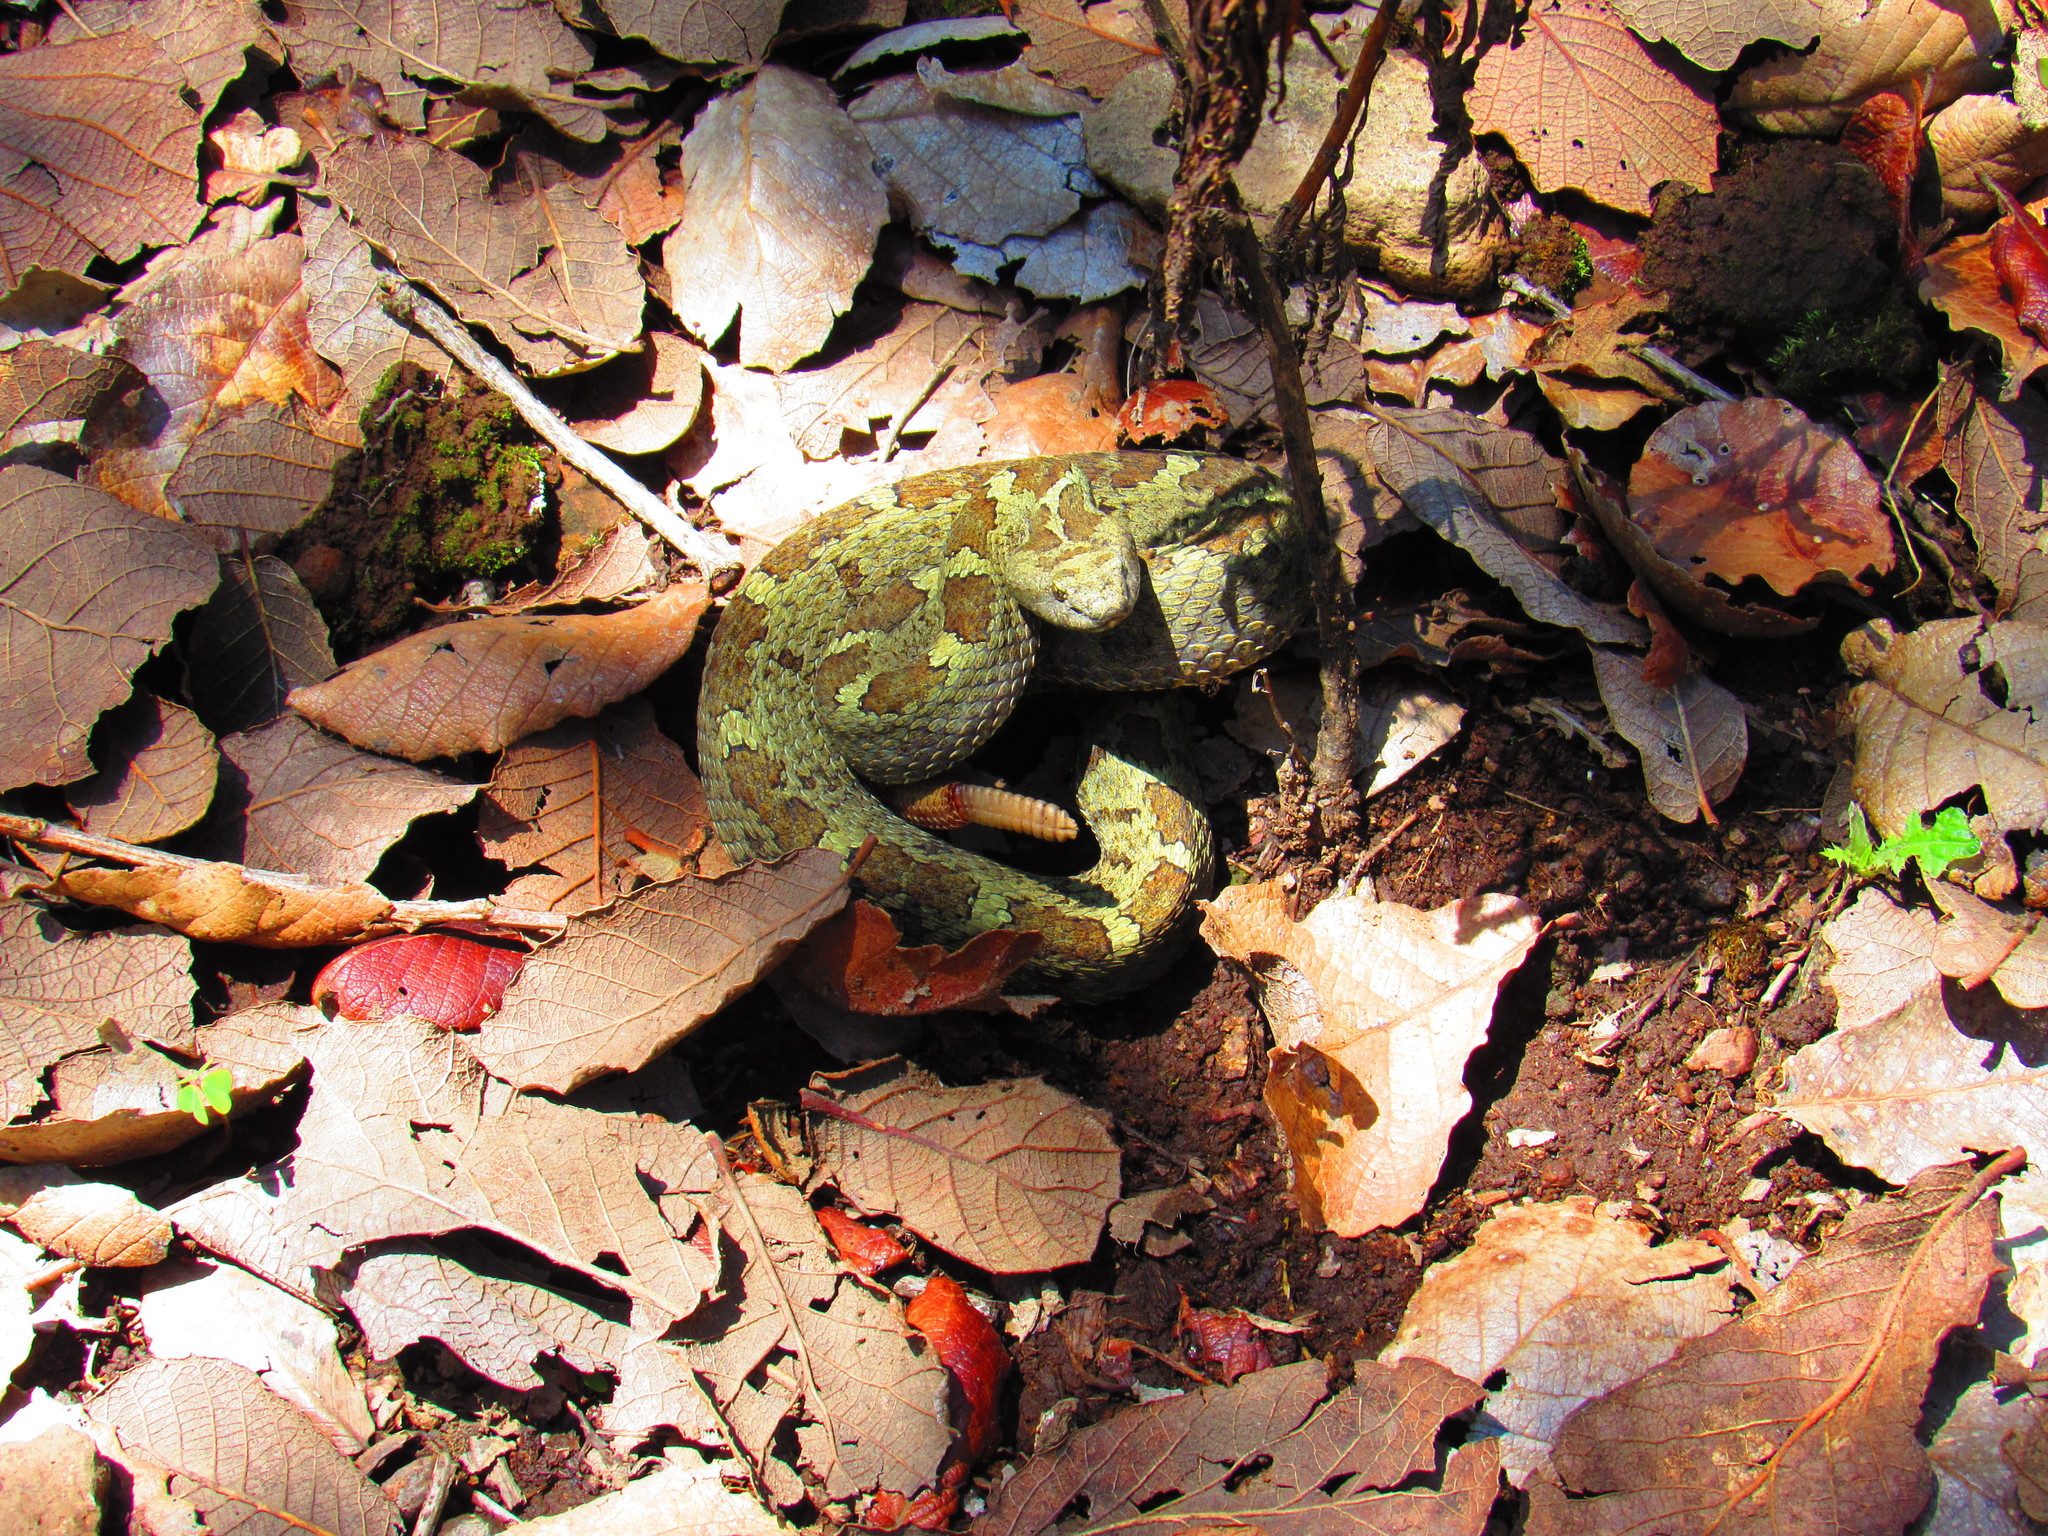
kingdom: Animalia
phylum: Chordata
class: Squamata
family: Viperidae
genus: Crotalus
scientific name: Crotalus aquilus
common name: Queretaran dusky rattlesnake
